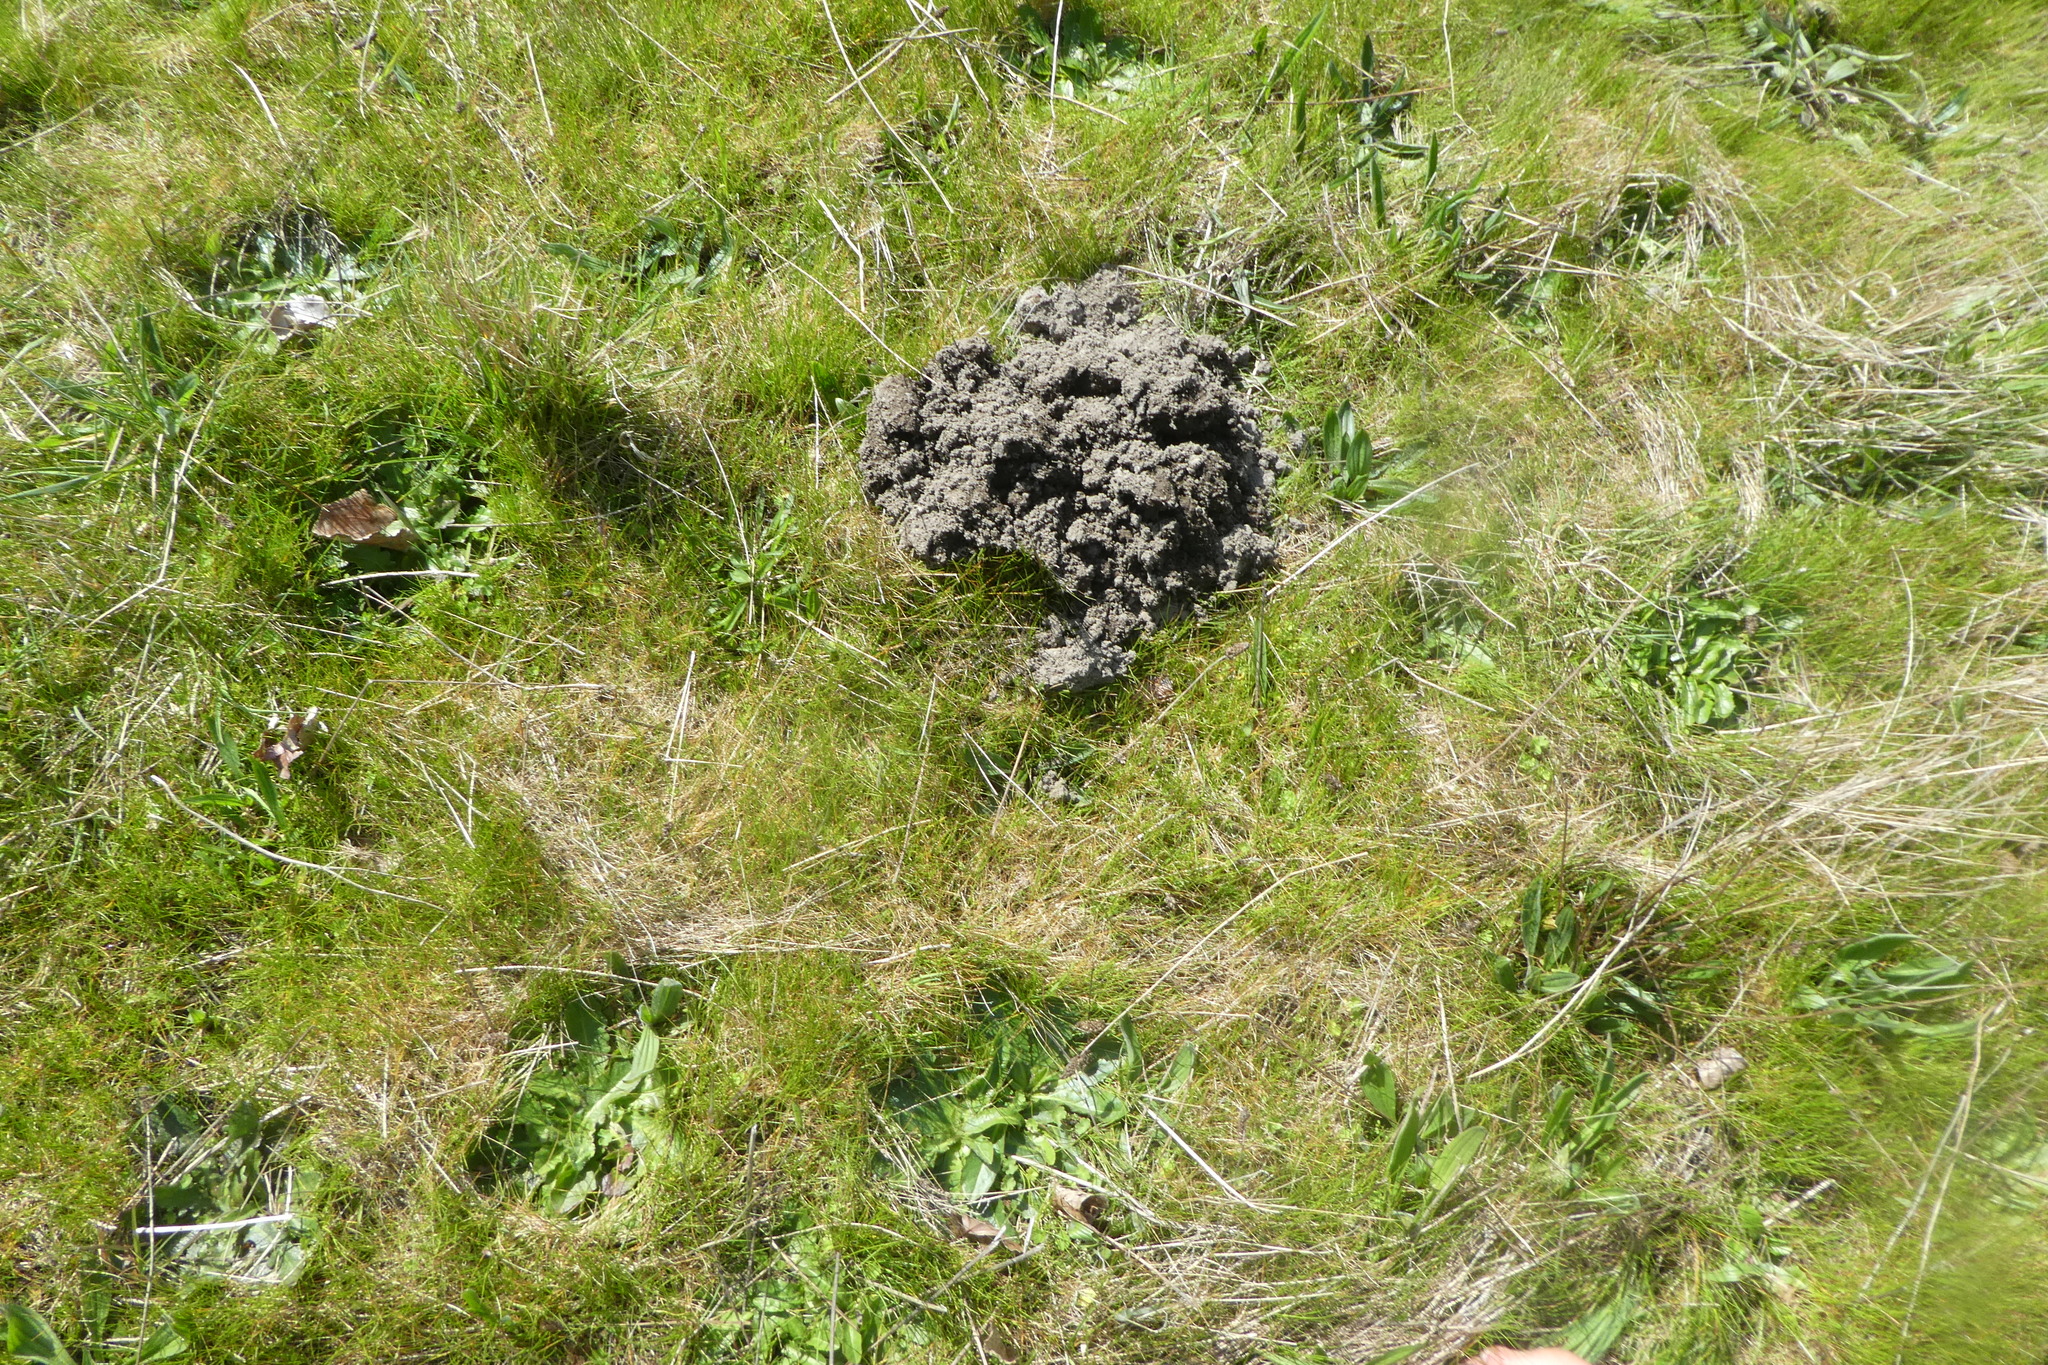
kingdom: Animalia
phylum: Chordata
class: Mammalia
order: Soricomorpha
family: Talpidae
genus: Scapanus
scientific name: Scapanus orarius
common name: Coast mole
